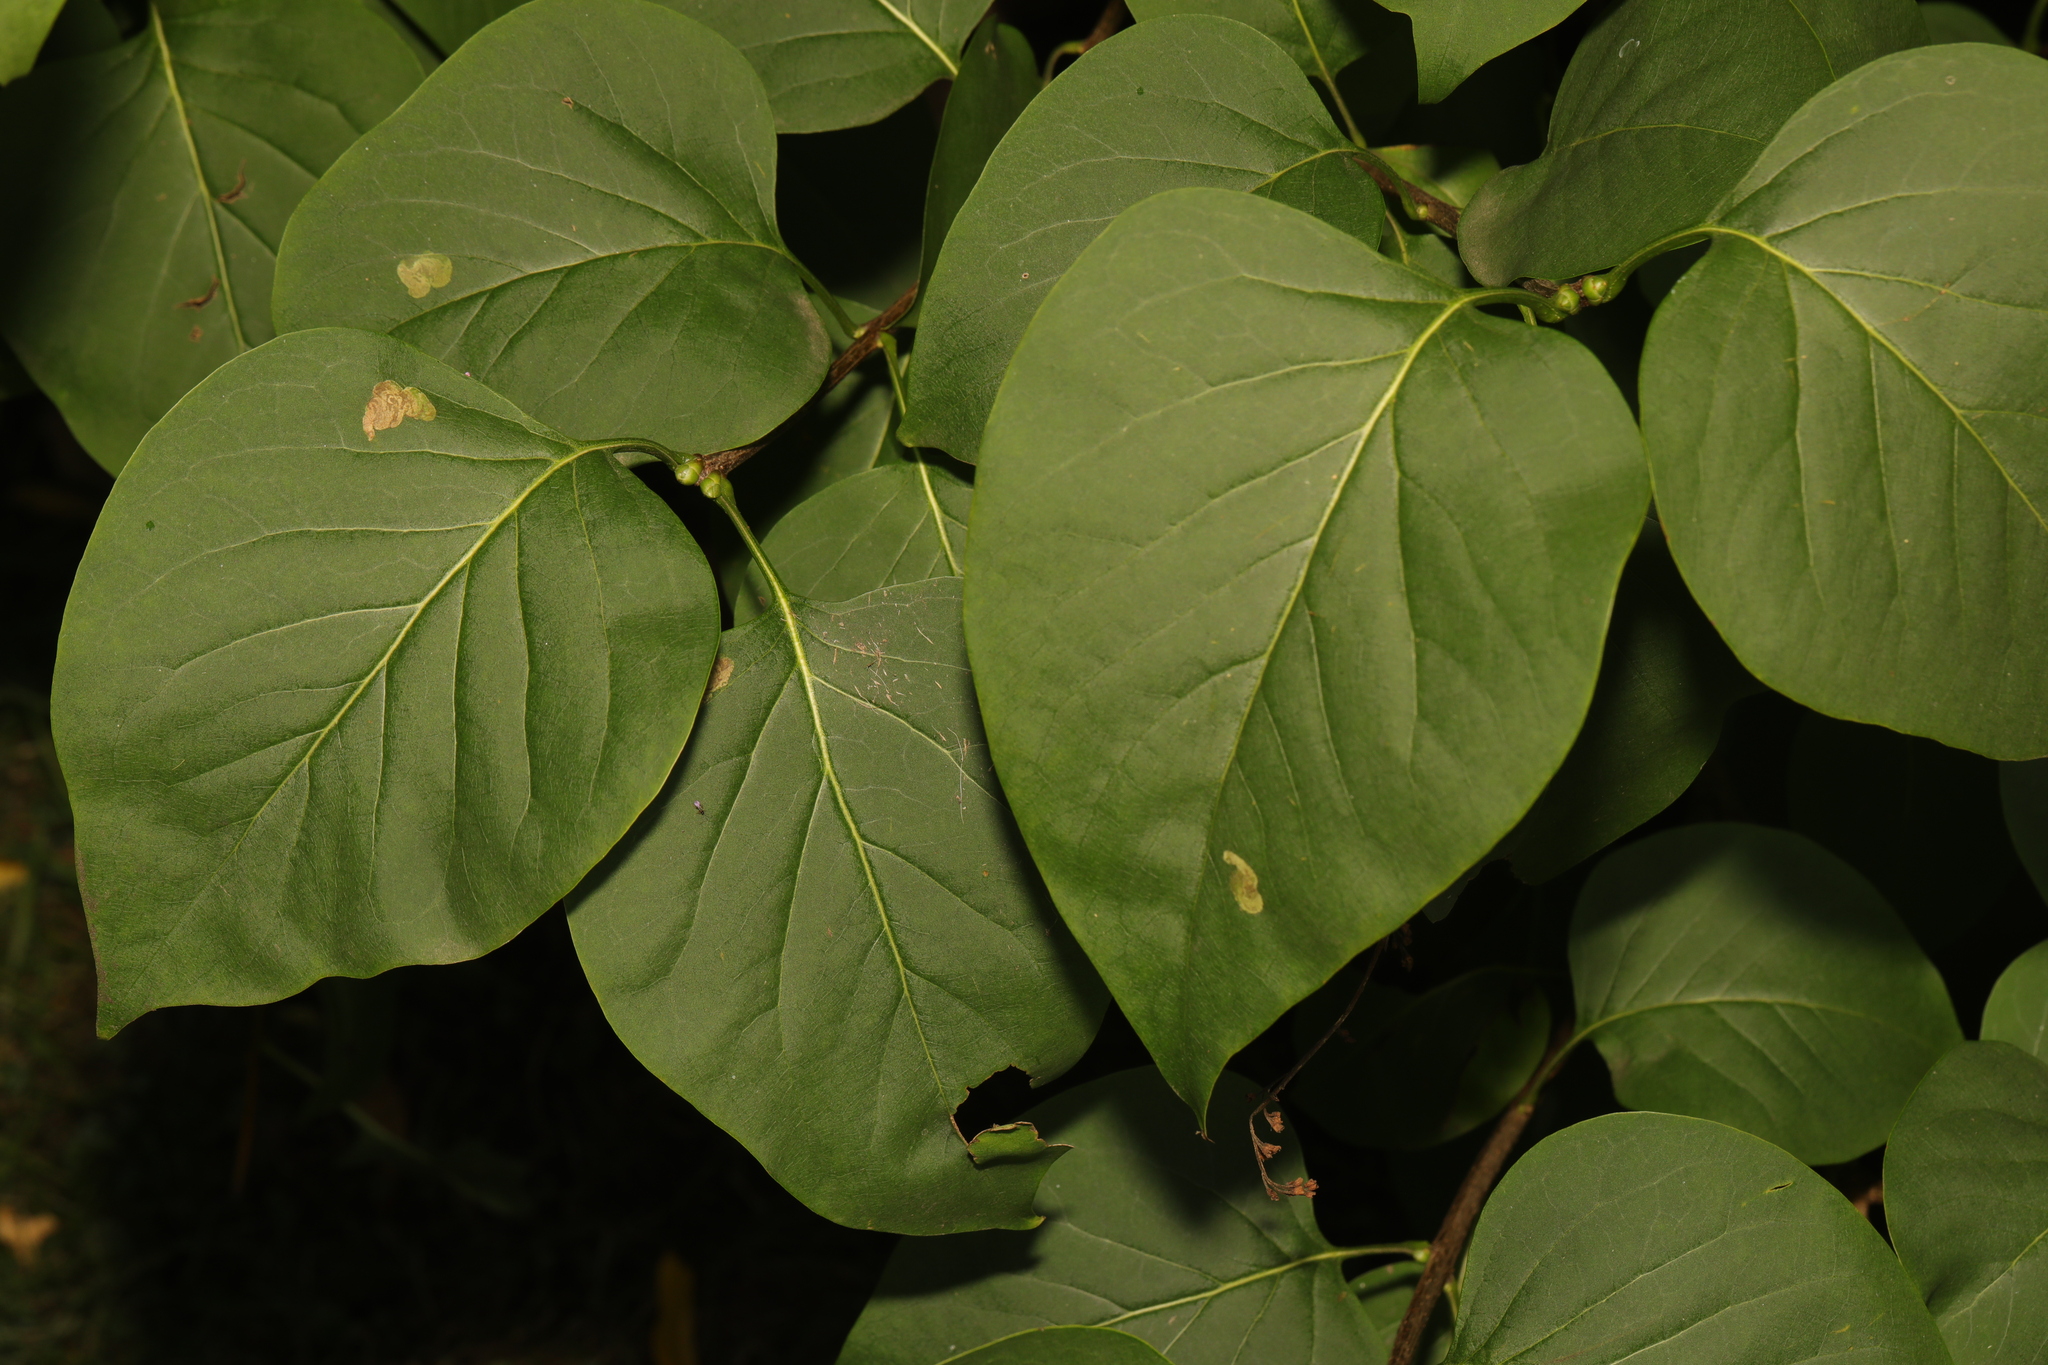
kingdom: Plantae
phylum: Tracheophyta
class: Magnoliopsida
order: Lamiales
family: Oleaceae
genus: Syringa
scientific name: Syringa vulgaris
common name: Common lilac
